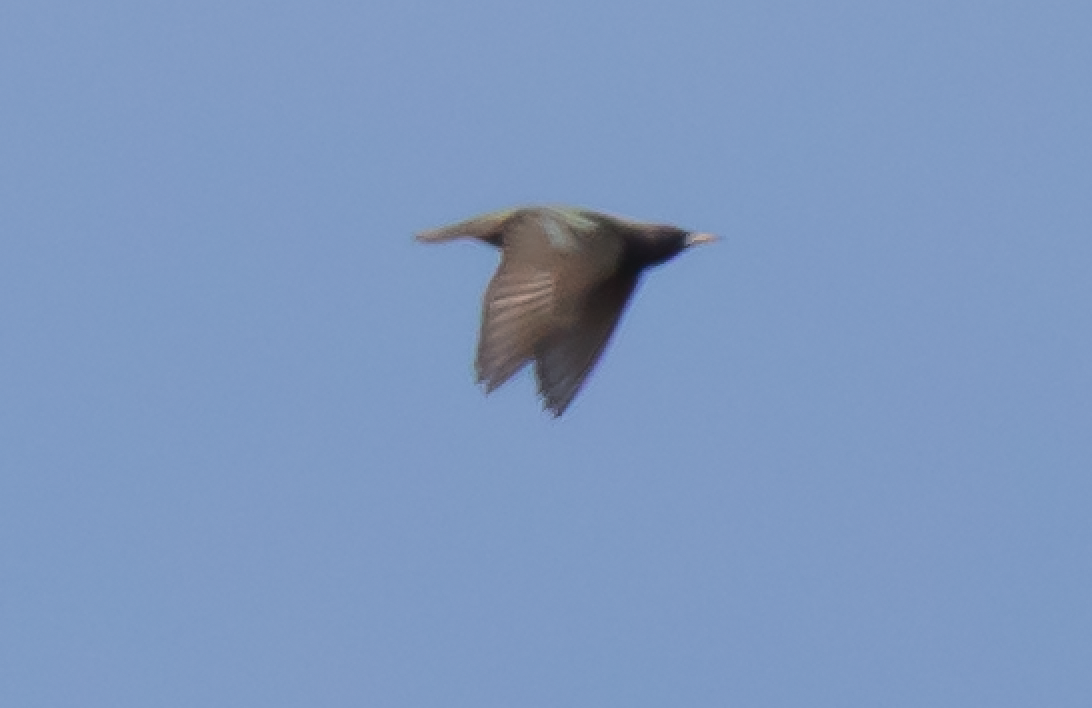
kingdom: Animalia
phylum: Chordata
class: Aves
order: Passeriformes
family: Sturnidae
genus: Sturnus
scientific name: Sturnus vulgaris
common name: Common starling
